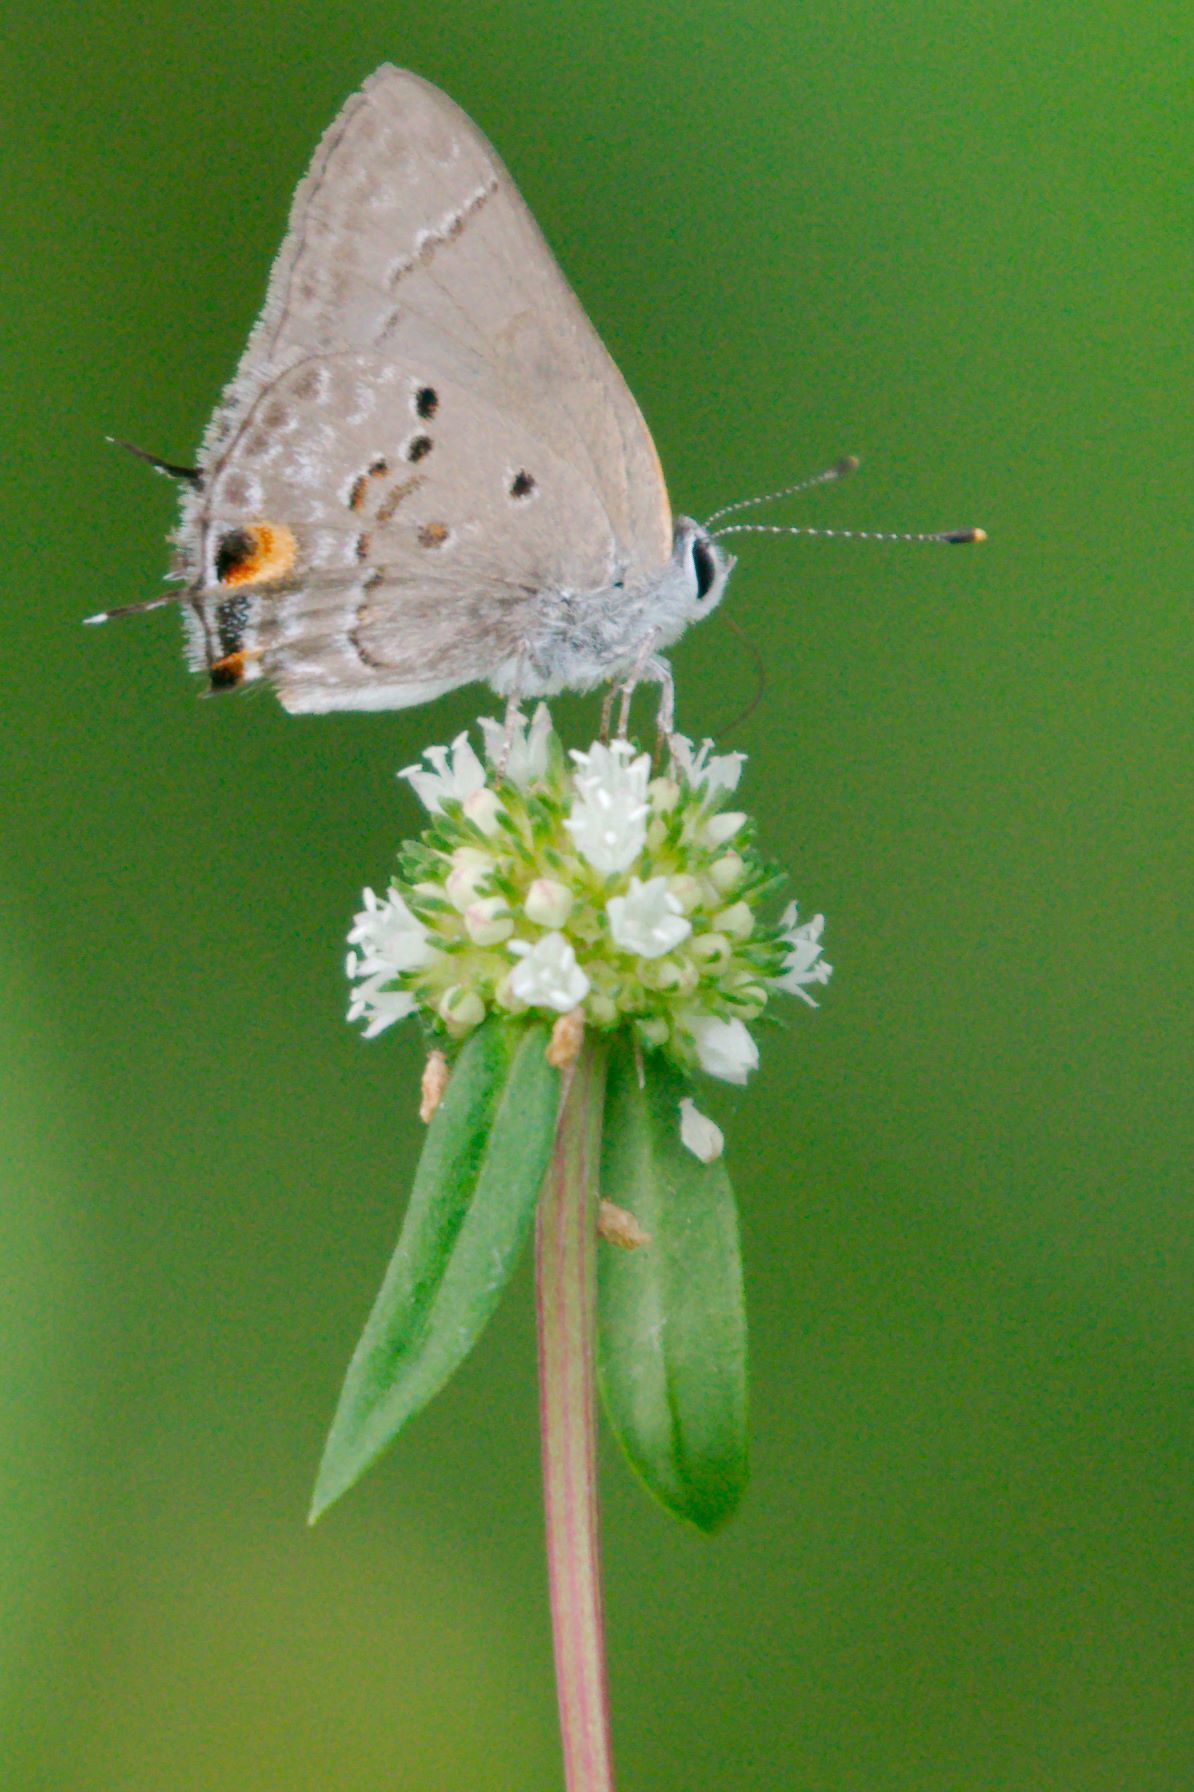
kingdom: Animalia
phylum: Arthropoda
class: Insecta
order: Lepidoptera
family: Lycaenidae
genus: Callicista
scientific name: Callicista columella
